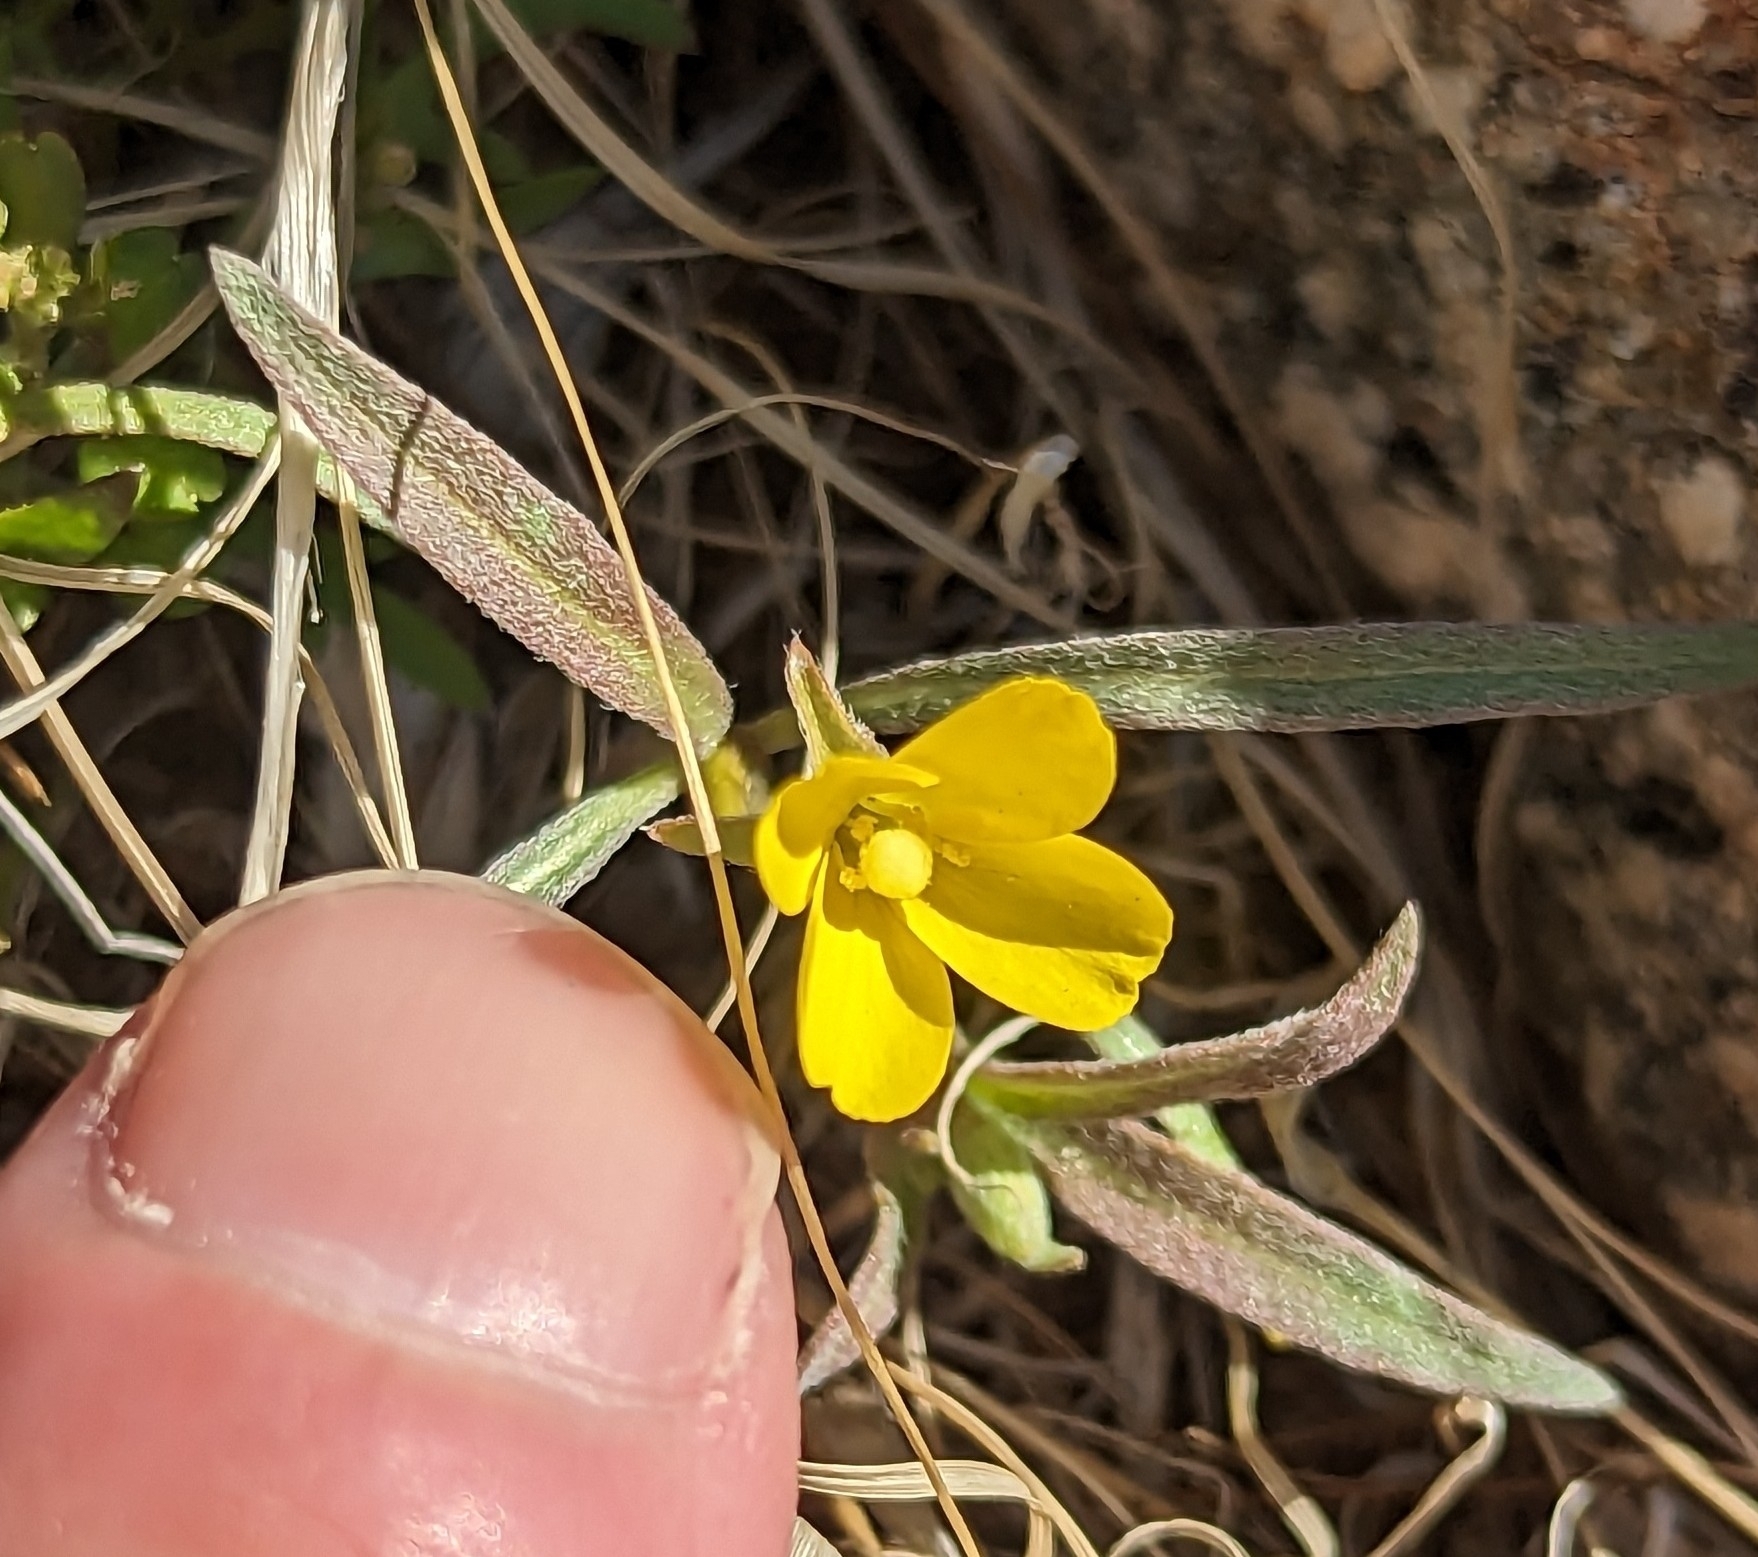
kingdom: Plantae
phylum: Tracheophyta
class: Magnoliopsida
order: Myrtales
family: Onagraceae
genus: Camissoniopsis
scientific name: Camissoniopsis pallida
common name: Paleyellow suncup
